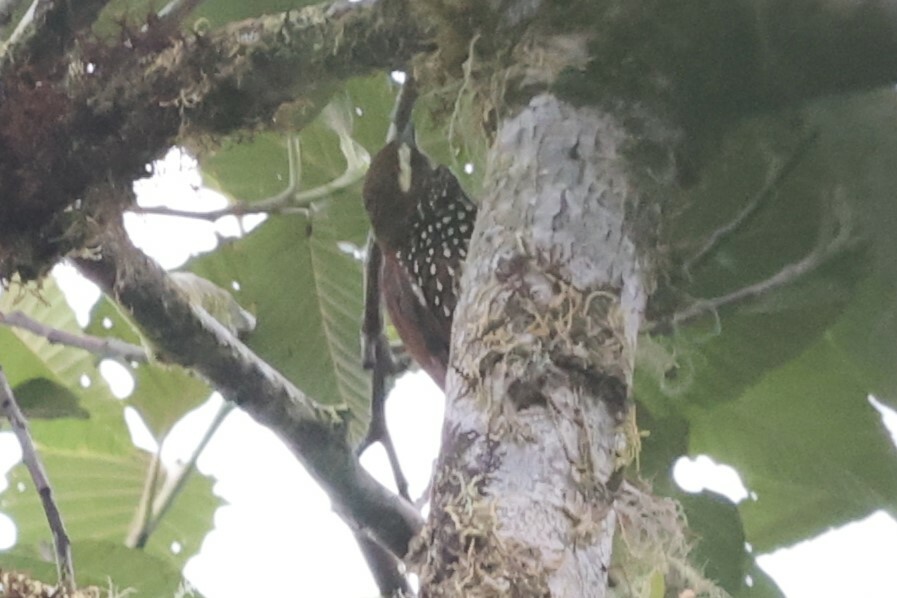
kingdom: Animalia
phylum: Chordata
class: Aves
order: Passeriformes
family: Furnariidae
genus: Margarornis
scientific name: Margarornis squamiger
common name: Pearled treerunner
